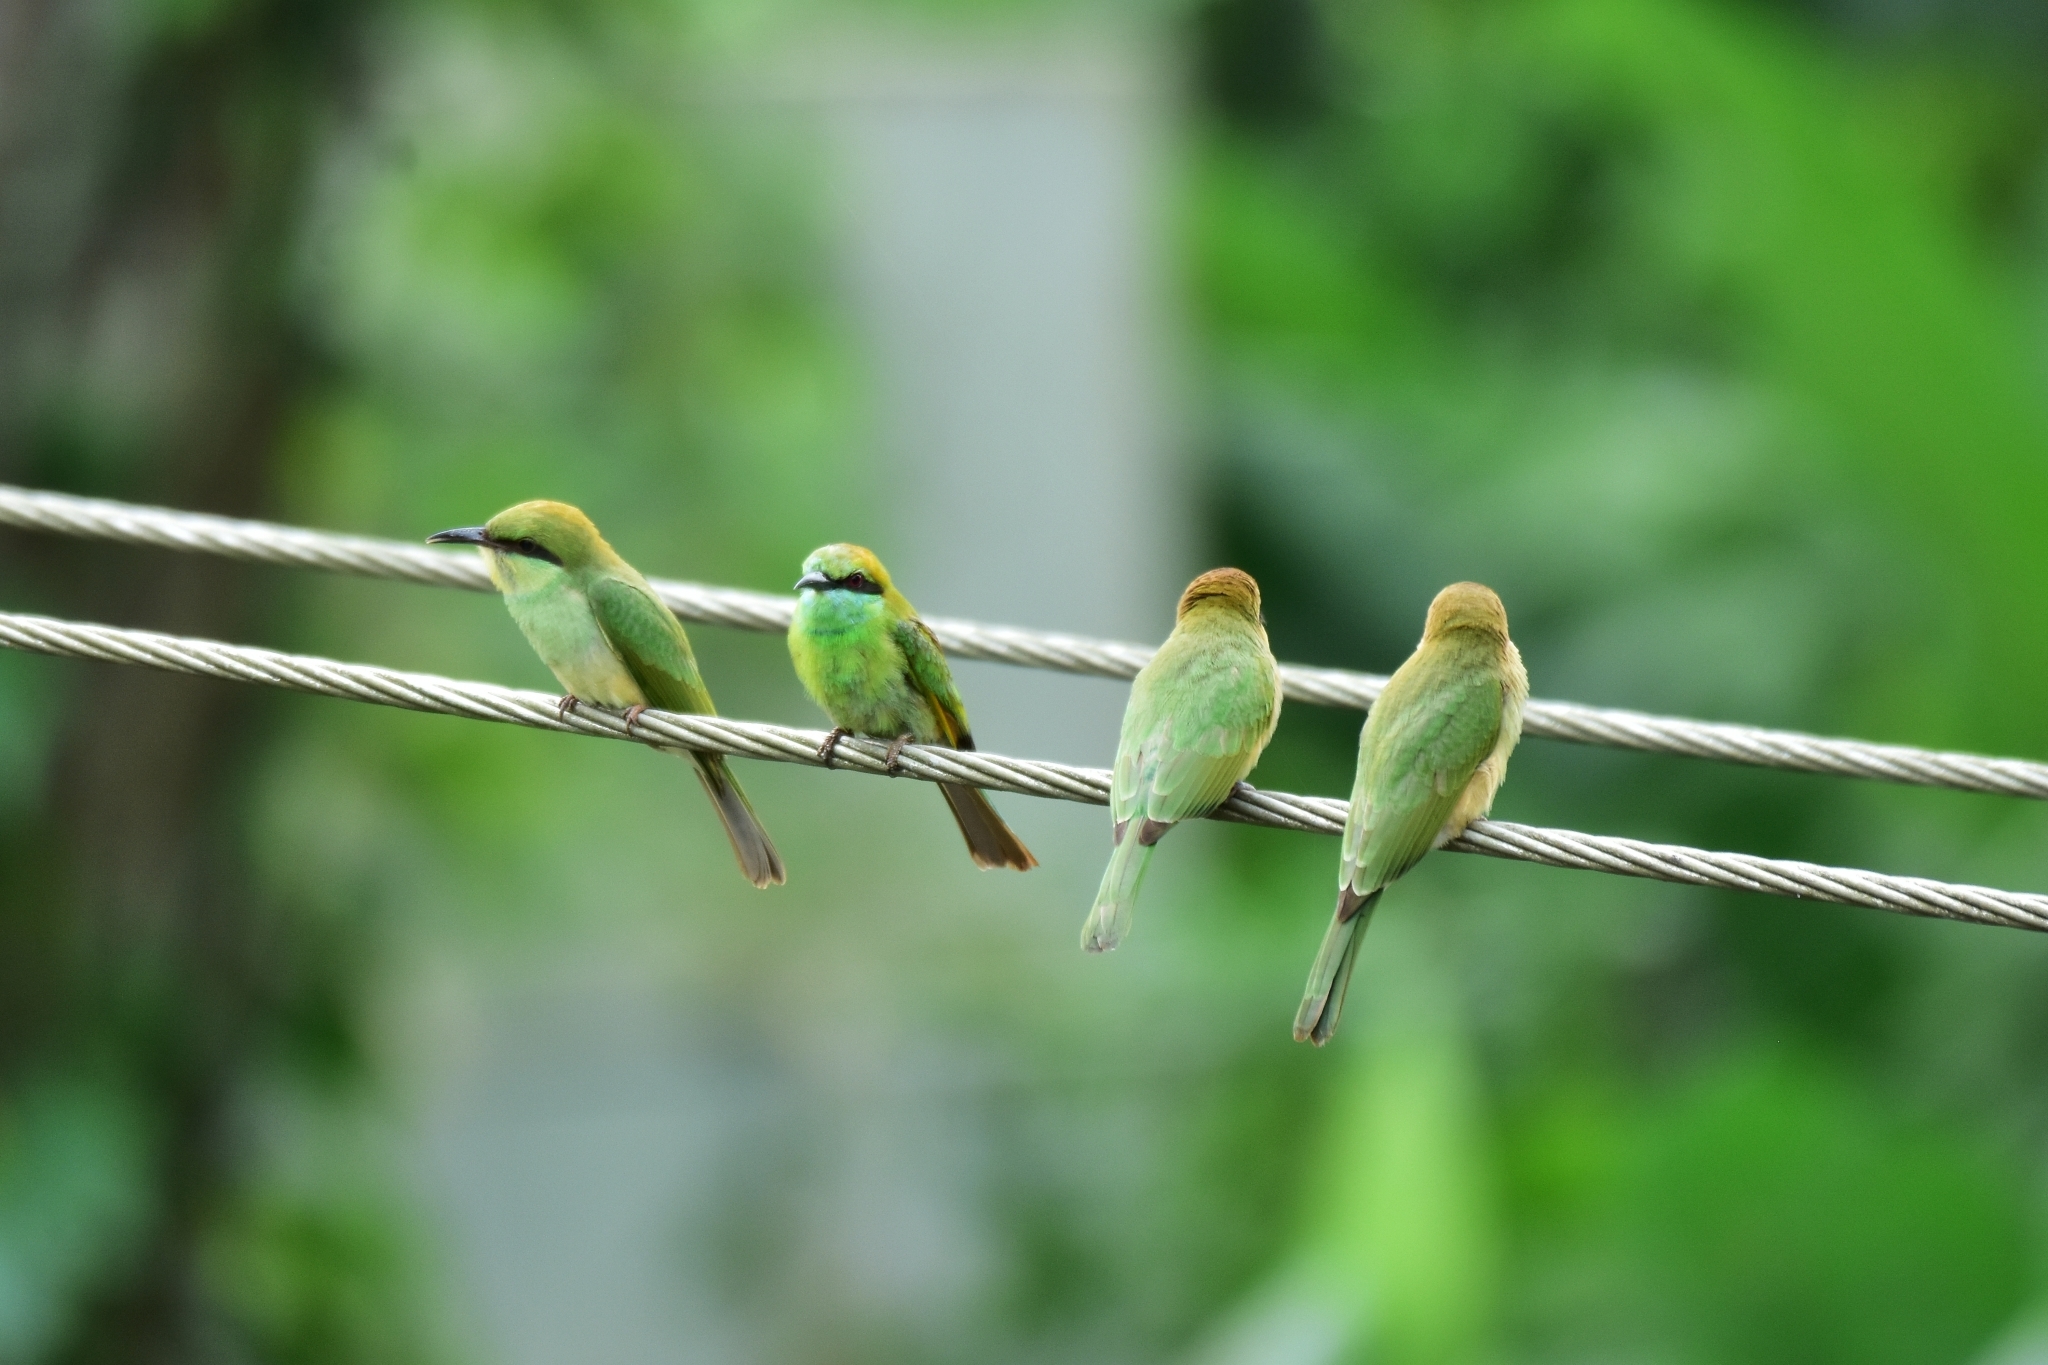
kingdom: Animalia
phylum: Chordata
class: Aves
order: Coraciiformes
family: Meropidae
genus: Merops
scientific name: Merops orientalis
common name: Green bee-eater
